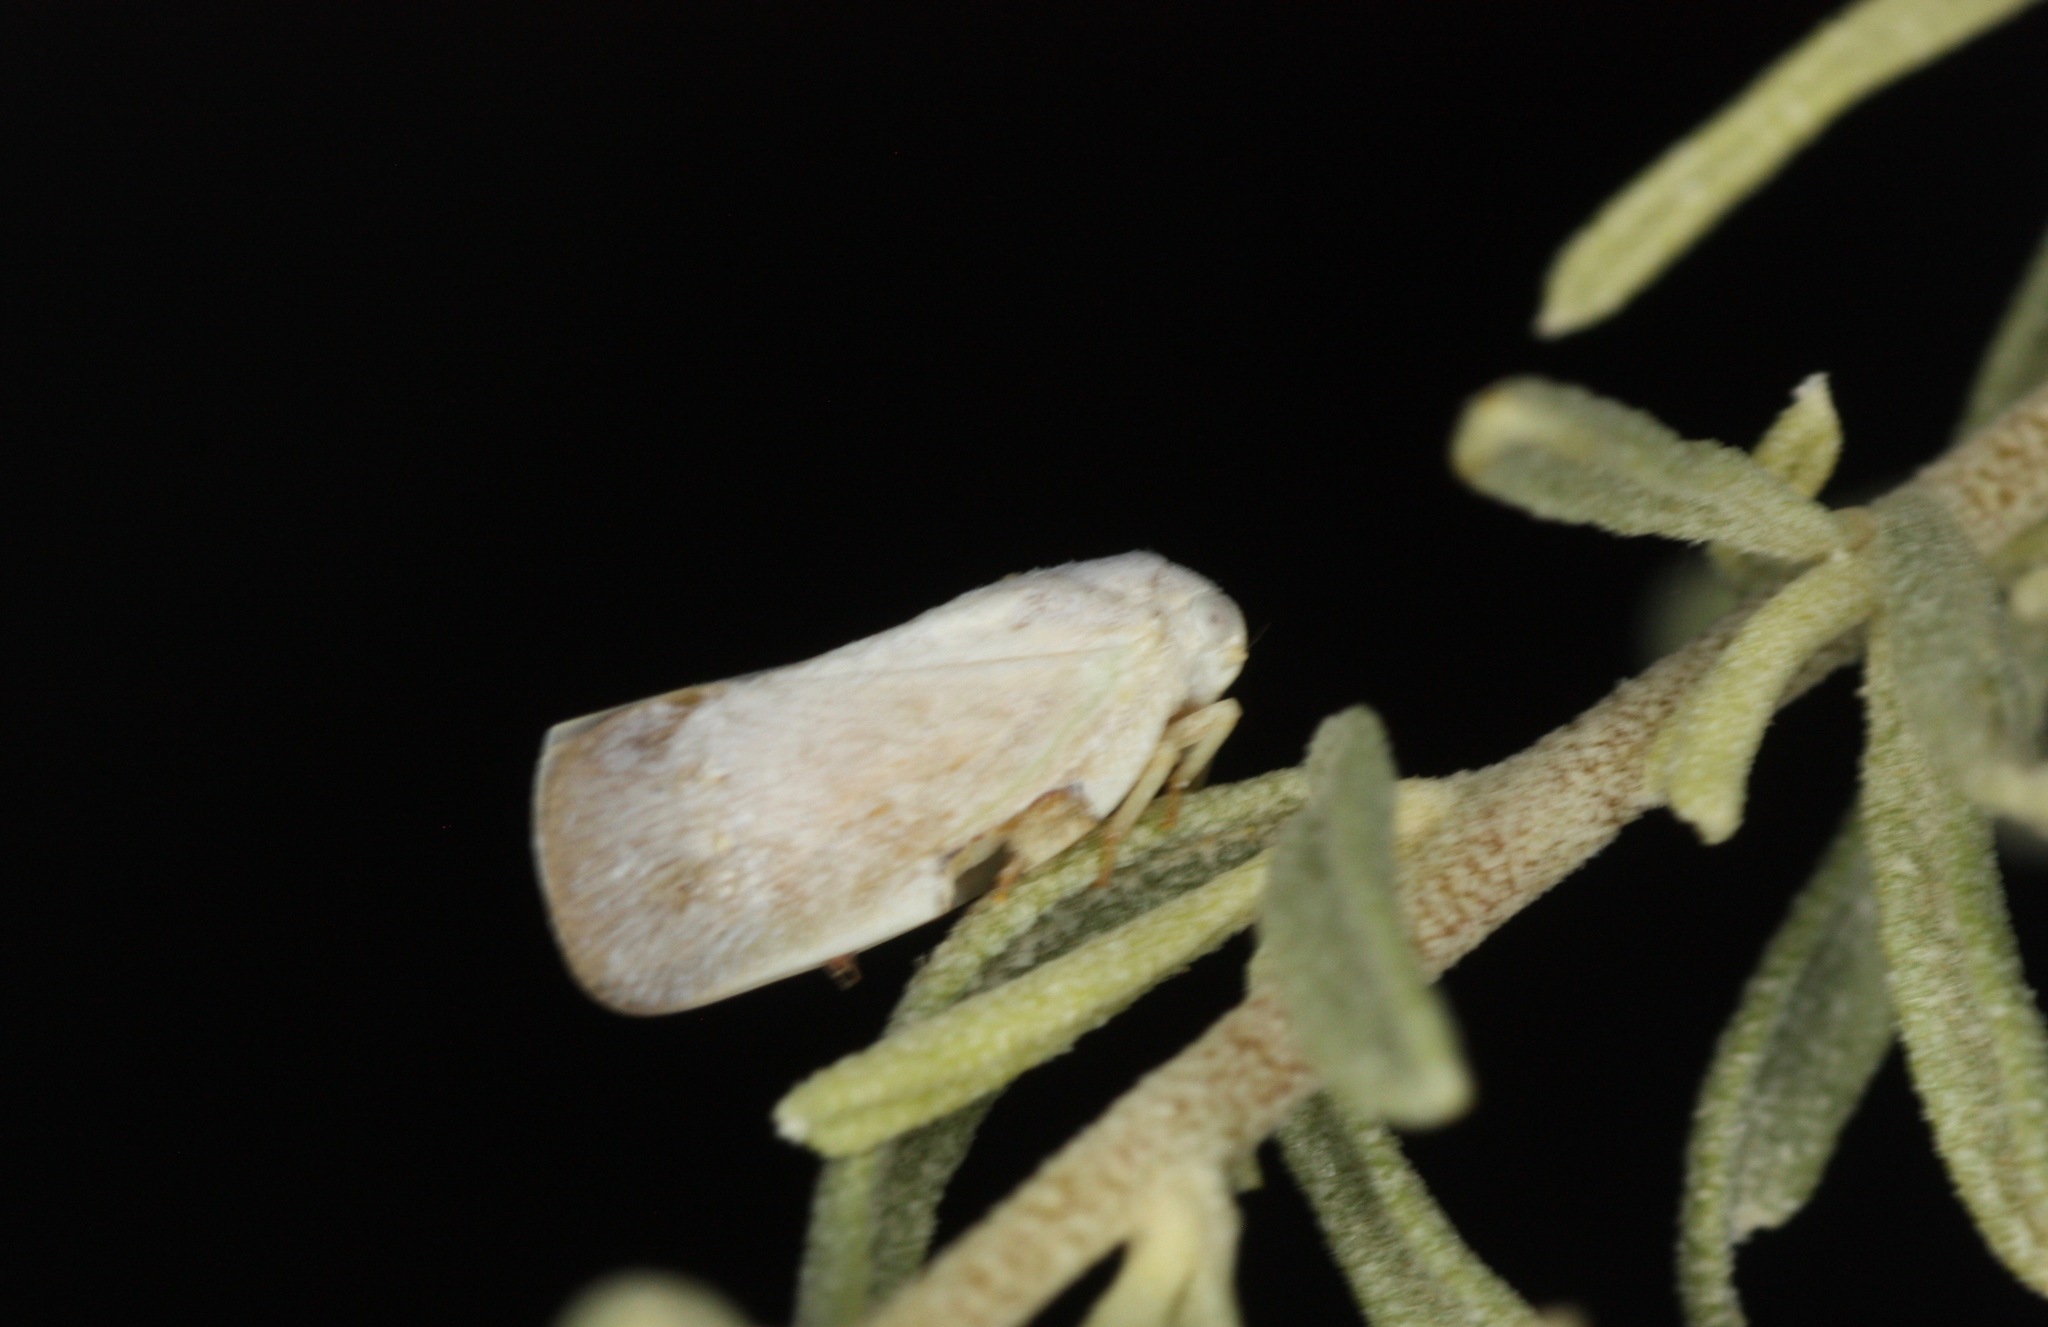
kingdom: Animalia
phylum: Arthropoda
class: Insecta
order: Hemiptera
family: Flatidae
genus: Flatormenis
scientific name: Flatormenis saucia
